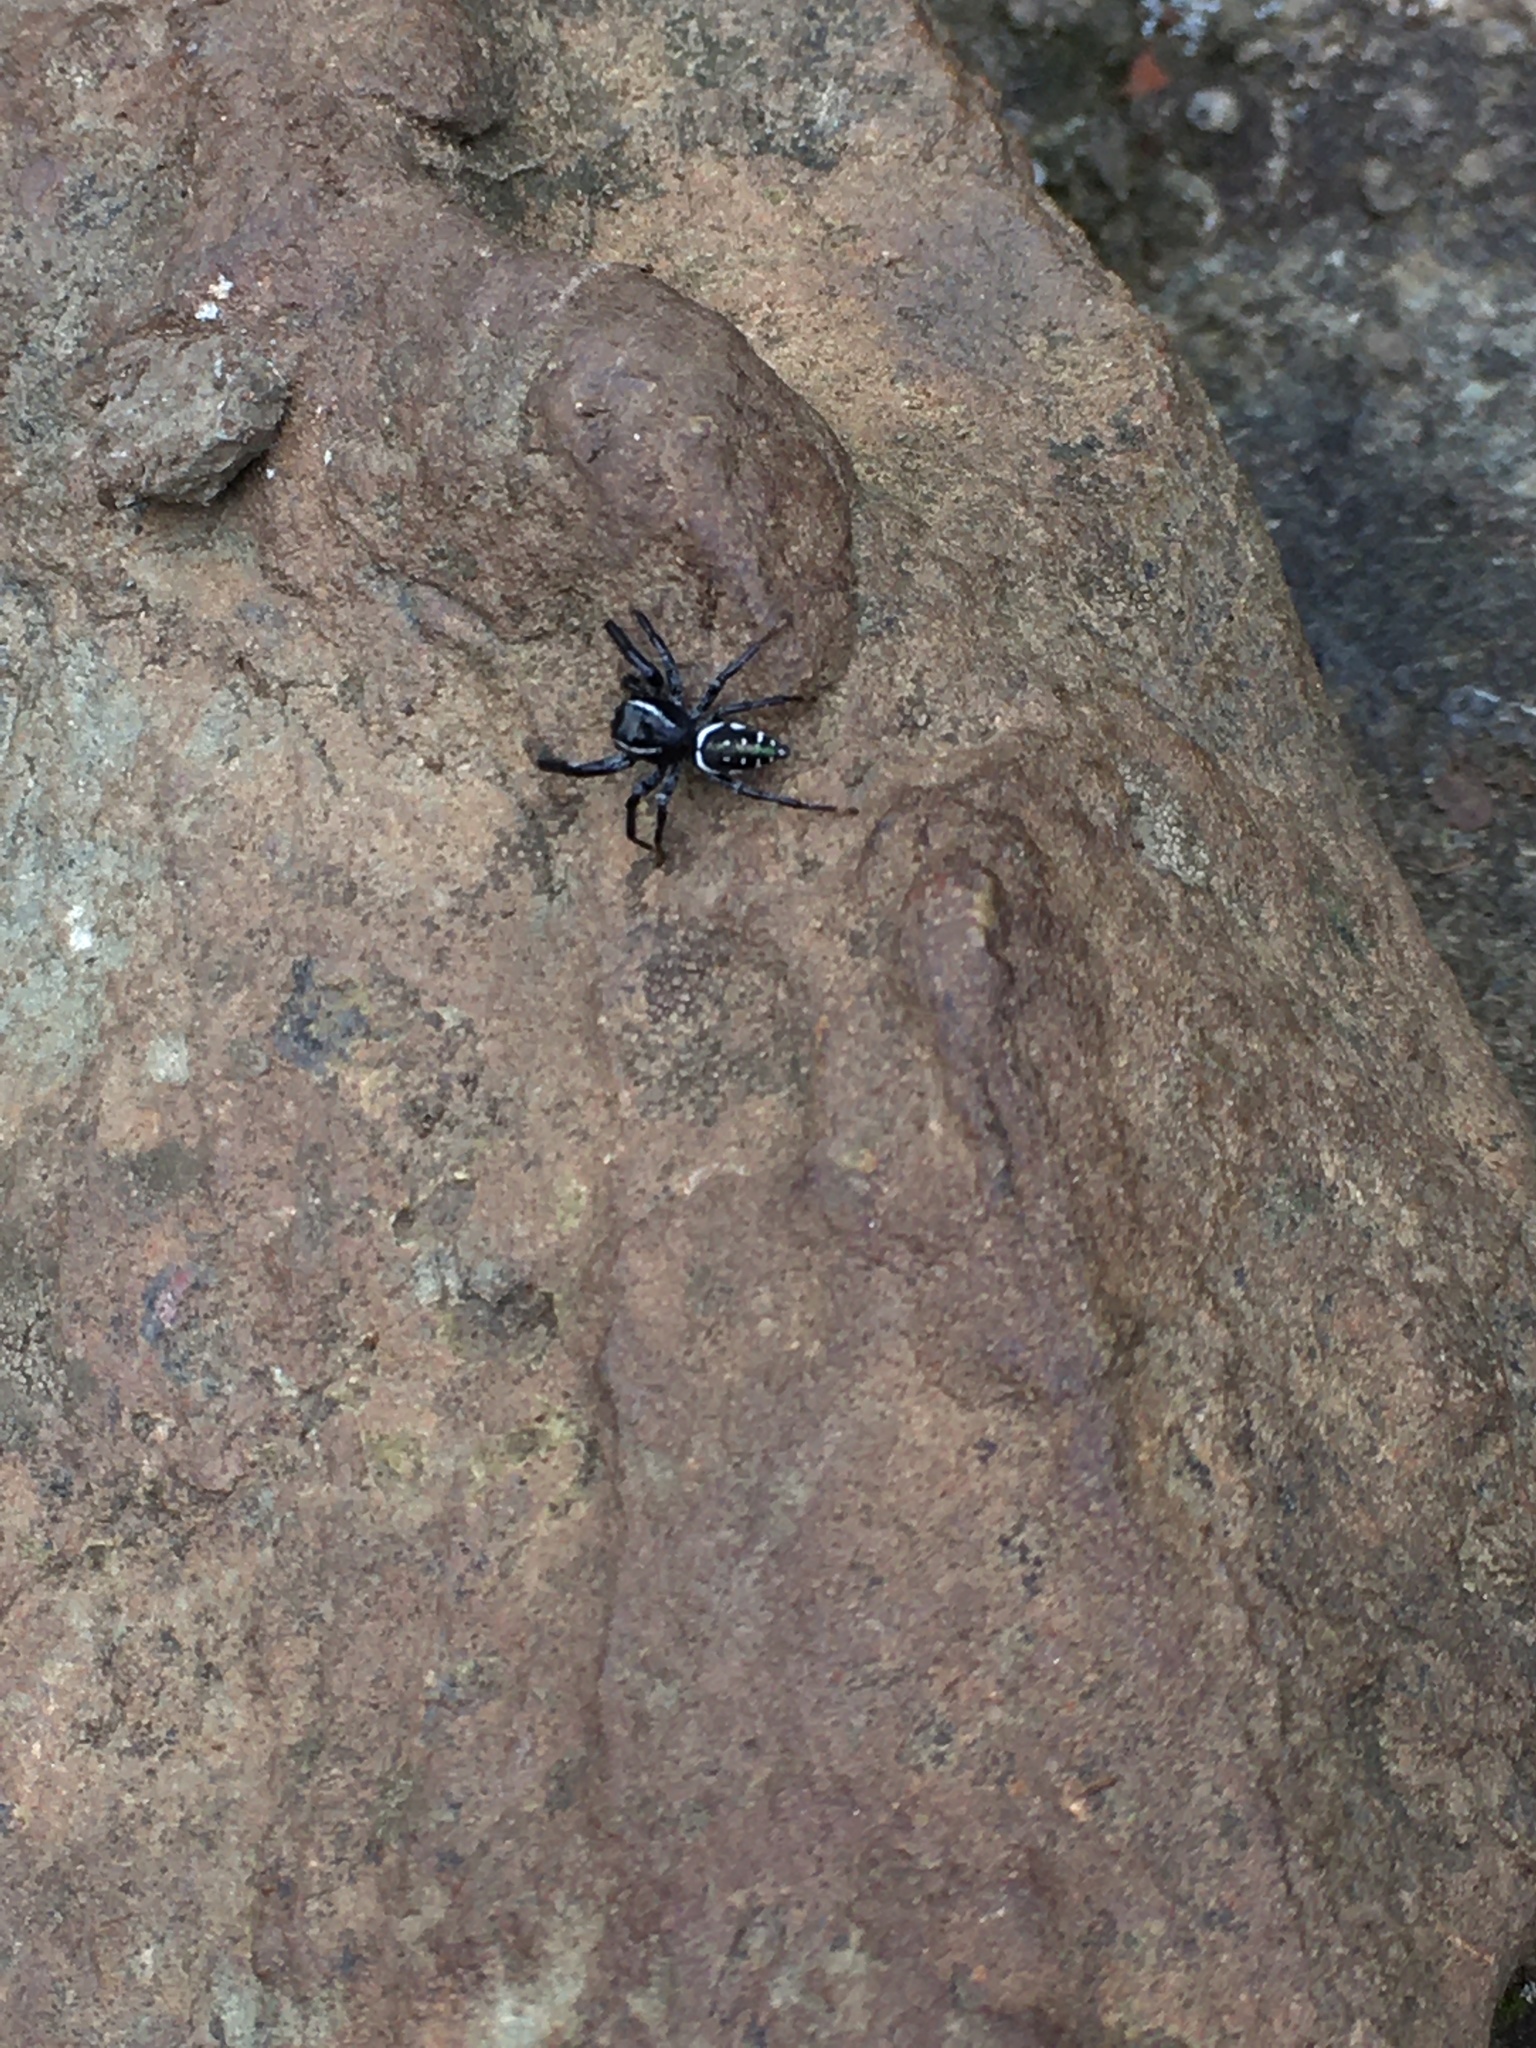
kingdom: Animalia
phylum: Arthropoda
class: Arachnida
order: Araneae
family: Salticidae
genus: Paraphidippus
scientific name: Paraphidippus aurantius
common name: Jumping spiders
